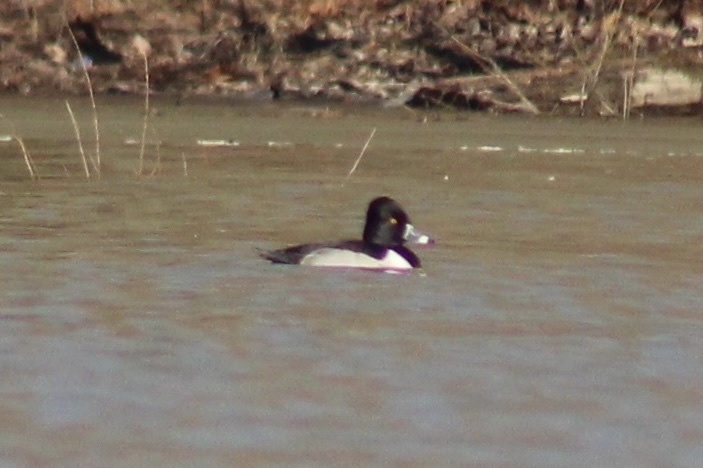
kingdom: Animalia
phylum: Chordata
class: Aves
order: Anseriformes
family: Anatidae
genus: Aythya
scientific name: Aythya collaris
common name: Ring-necked duck
